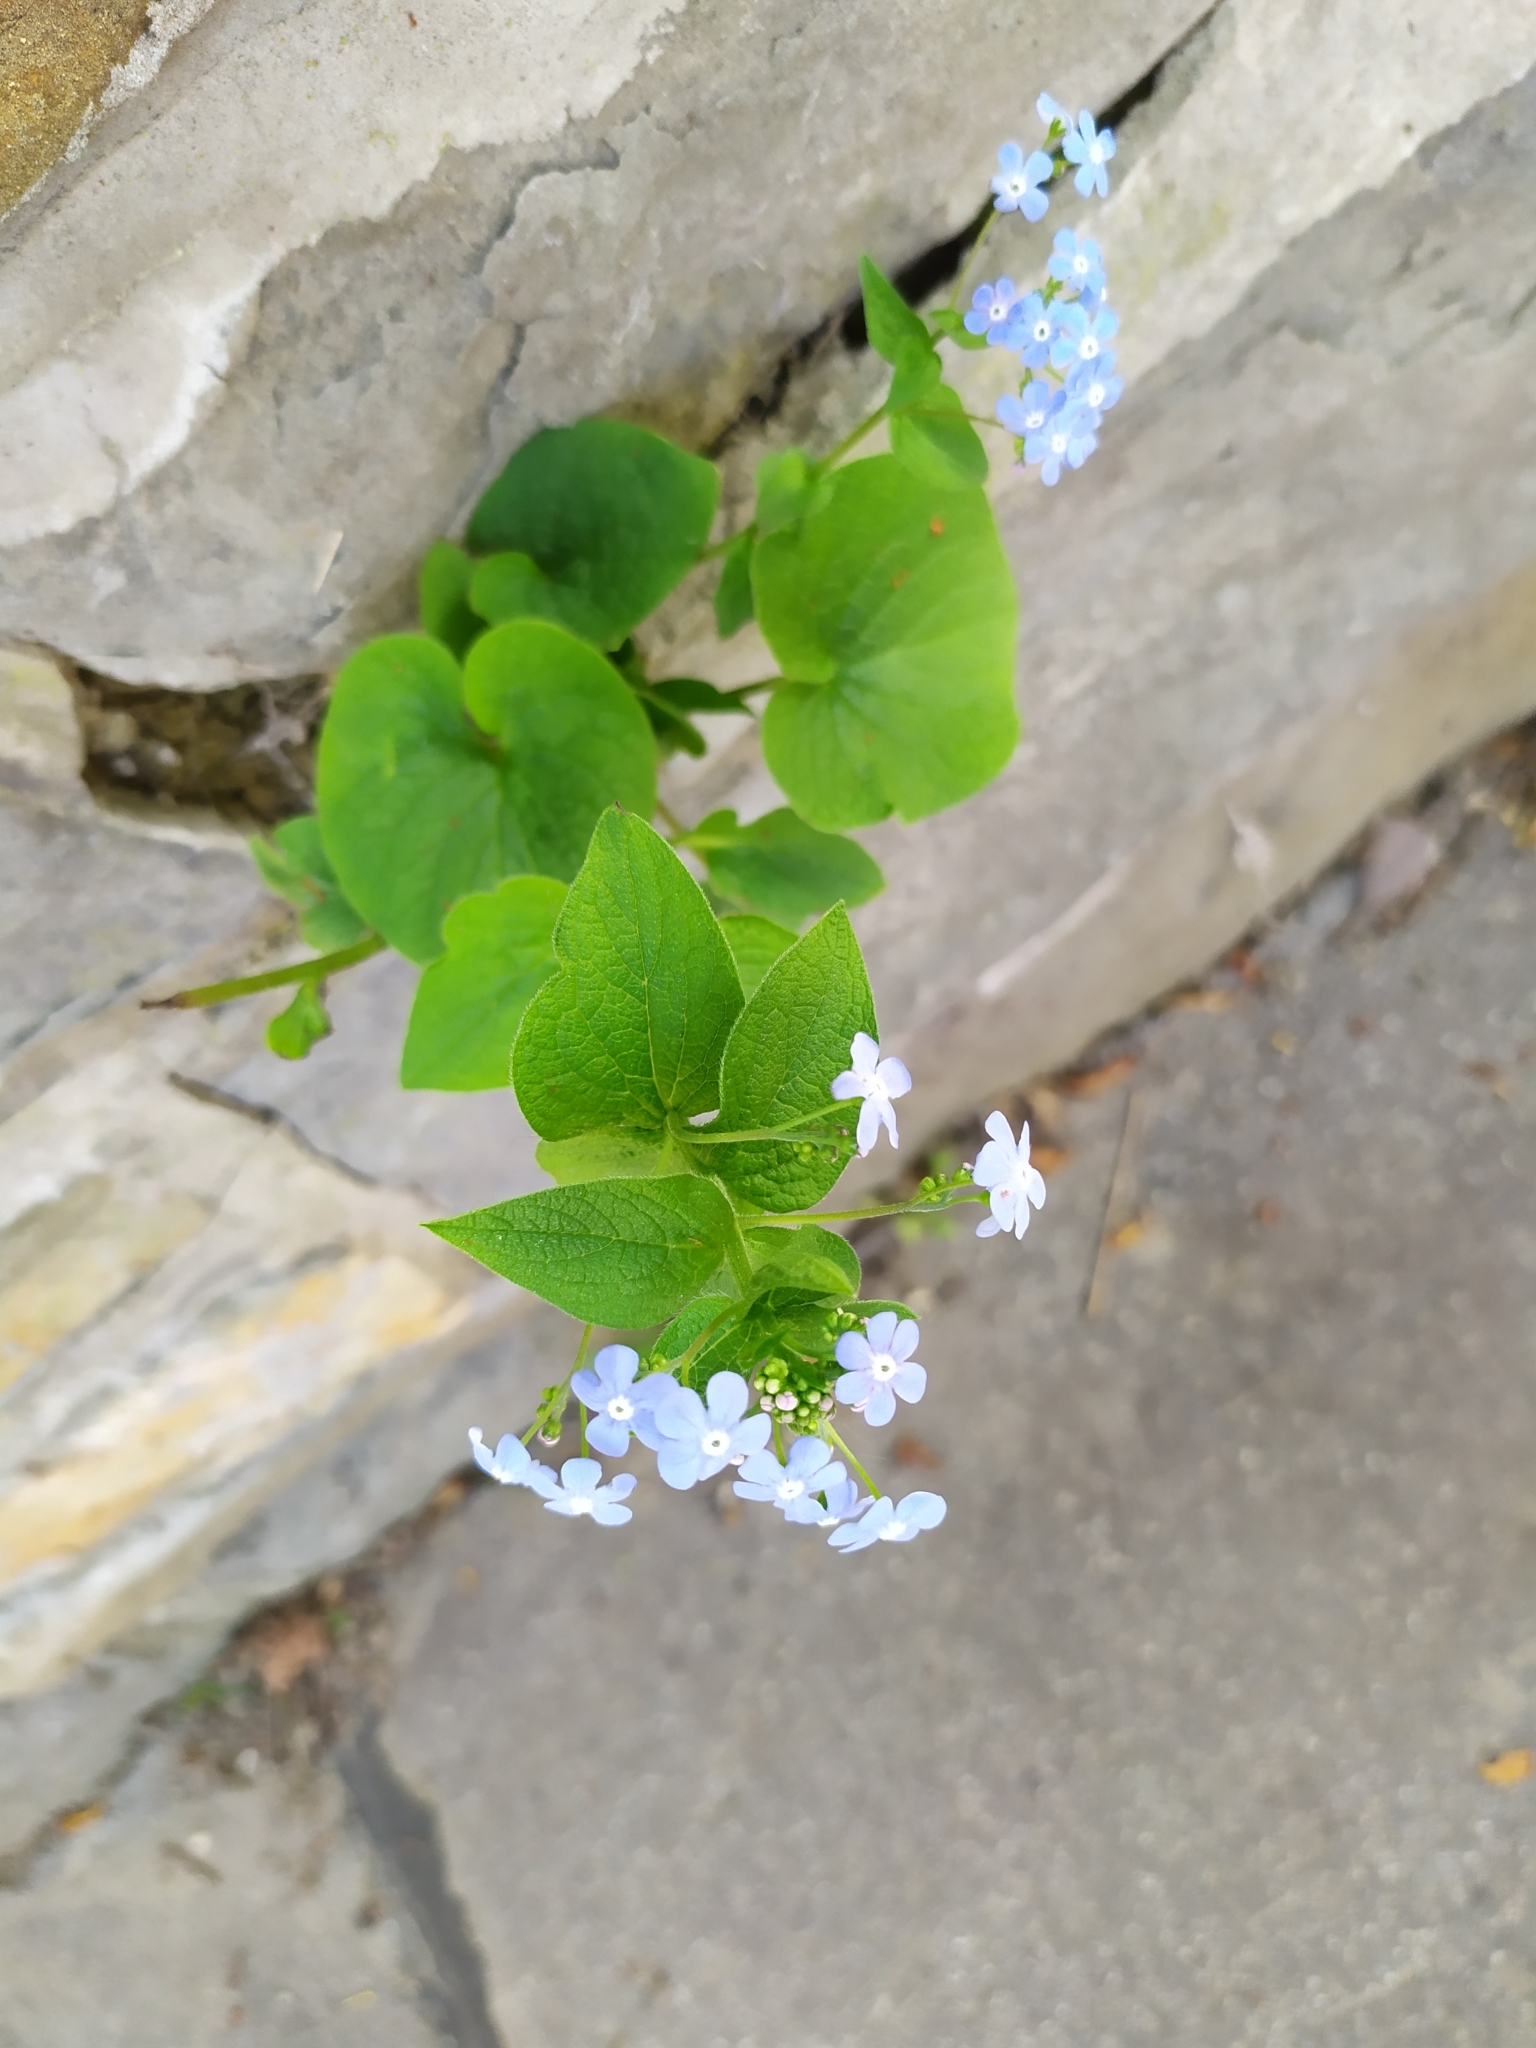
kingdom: Plantae
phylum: Tracheophyta
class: Magnoliopsida
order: Boraginales
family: Boraginaceae
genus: Brunnera
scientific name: Brunnera macrophylla
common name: Great forget-me-not
